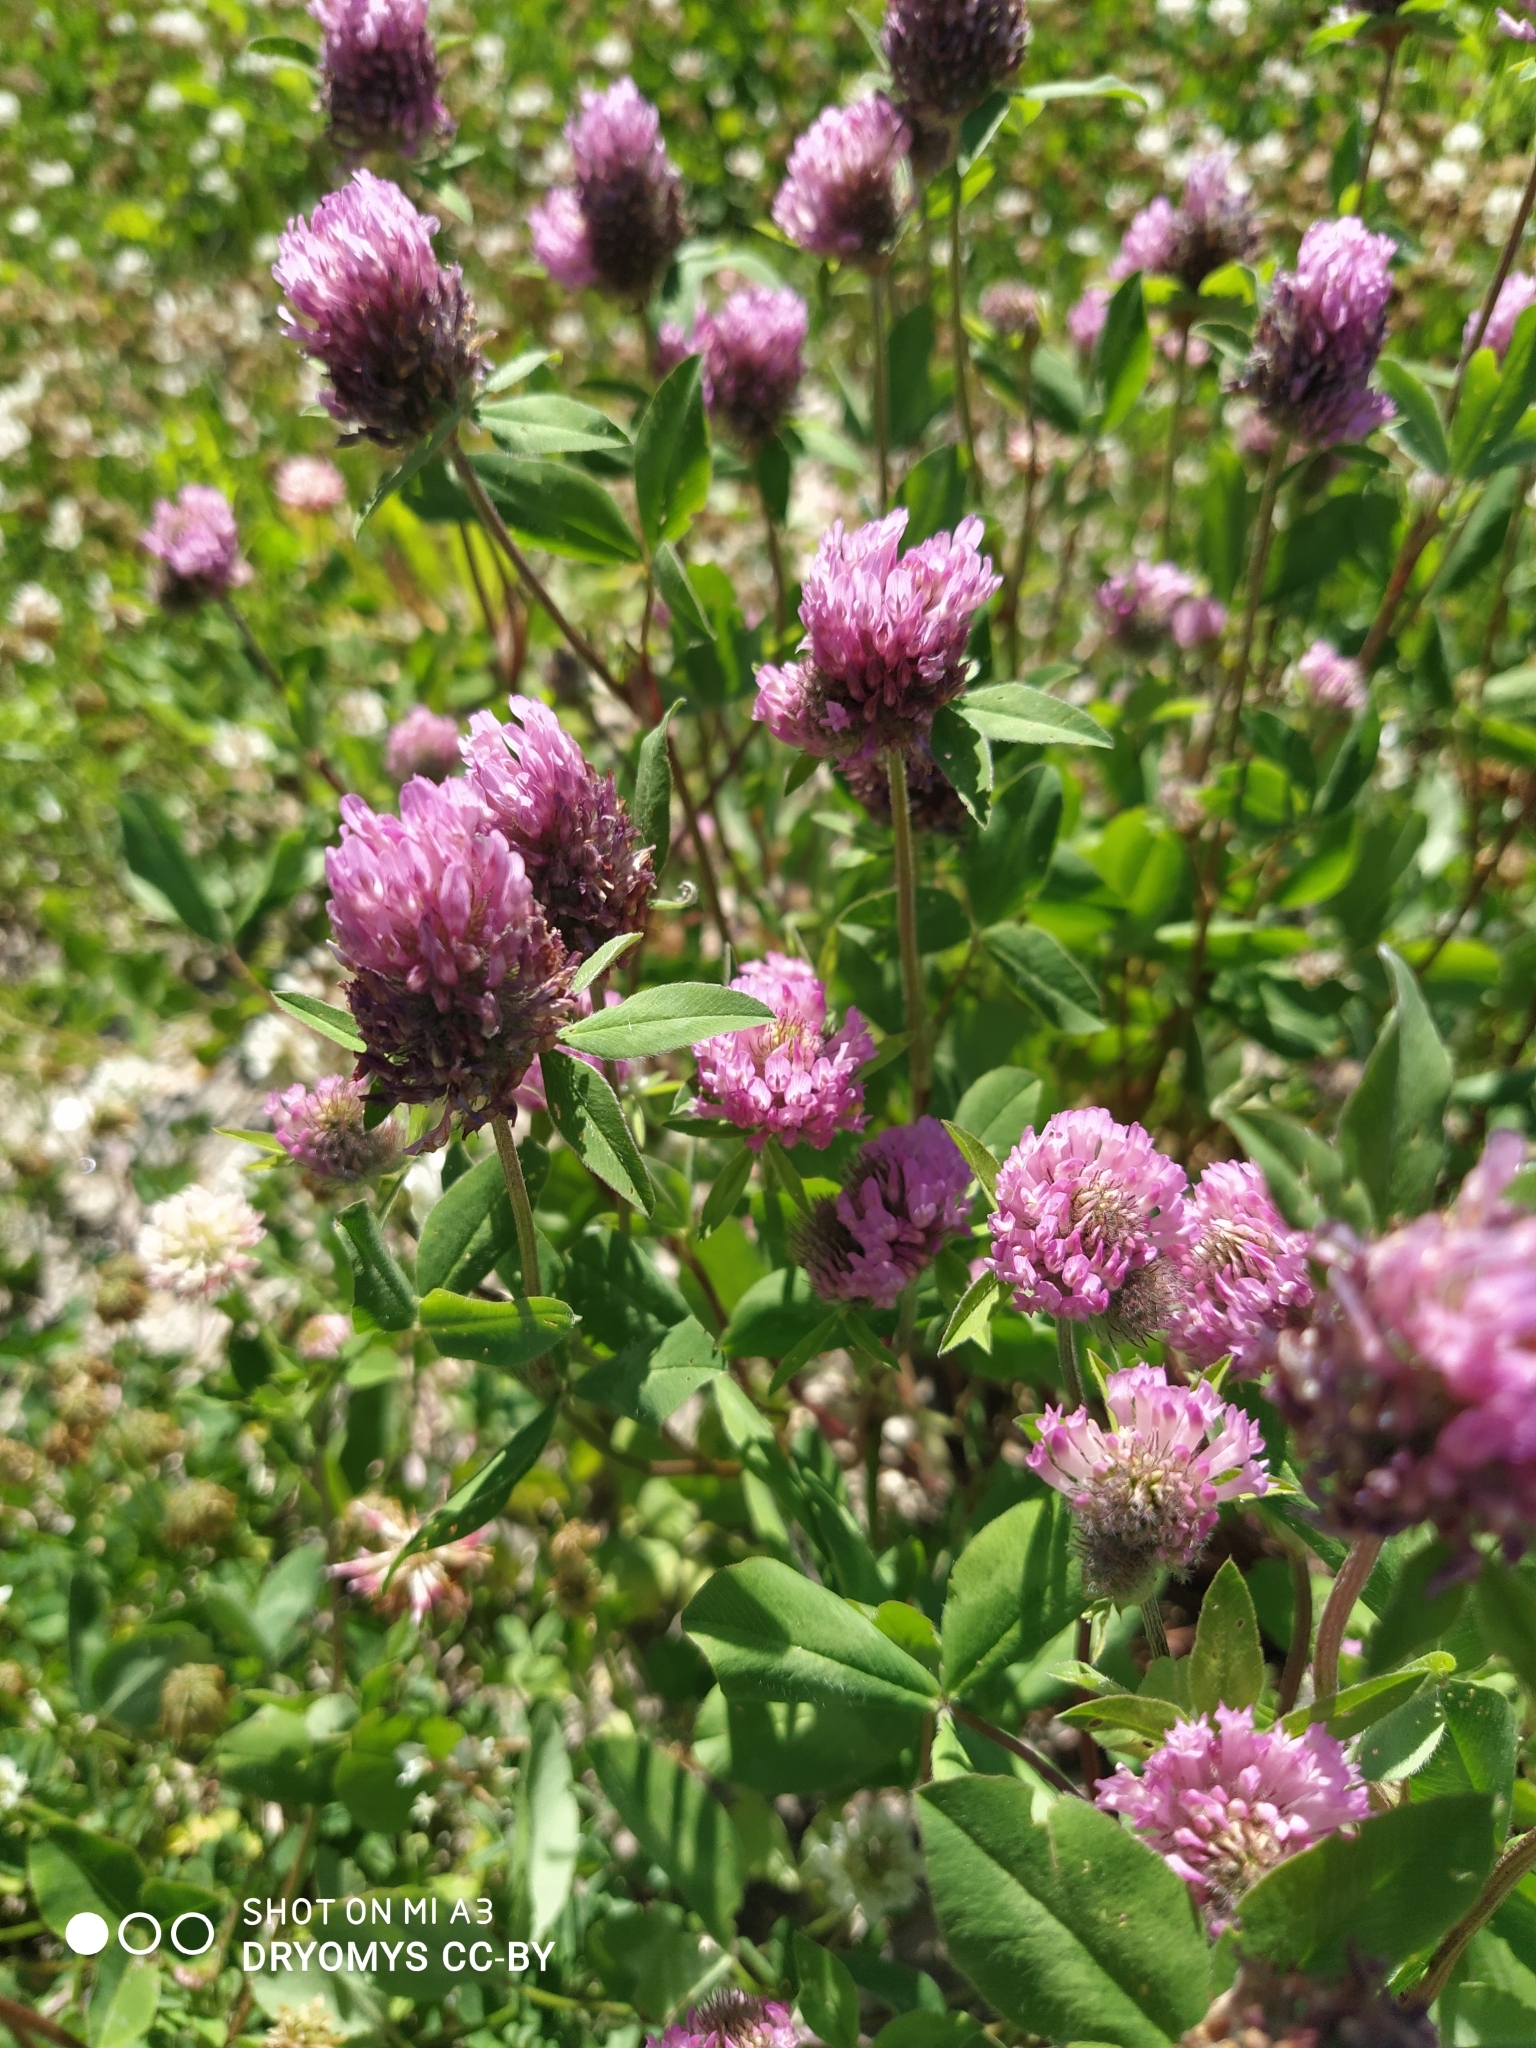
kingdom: Plantae
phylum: Tracheophyta
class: Magnoliopsida
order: Fabales
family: Fabaceae
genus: Trifolium
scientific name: Trifolium pratense
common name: Red clover
